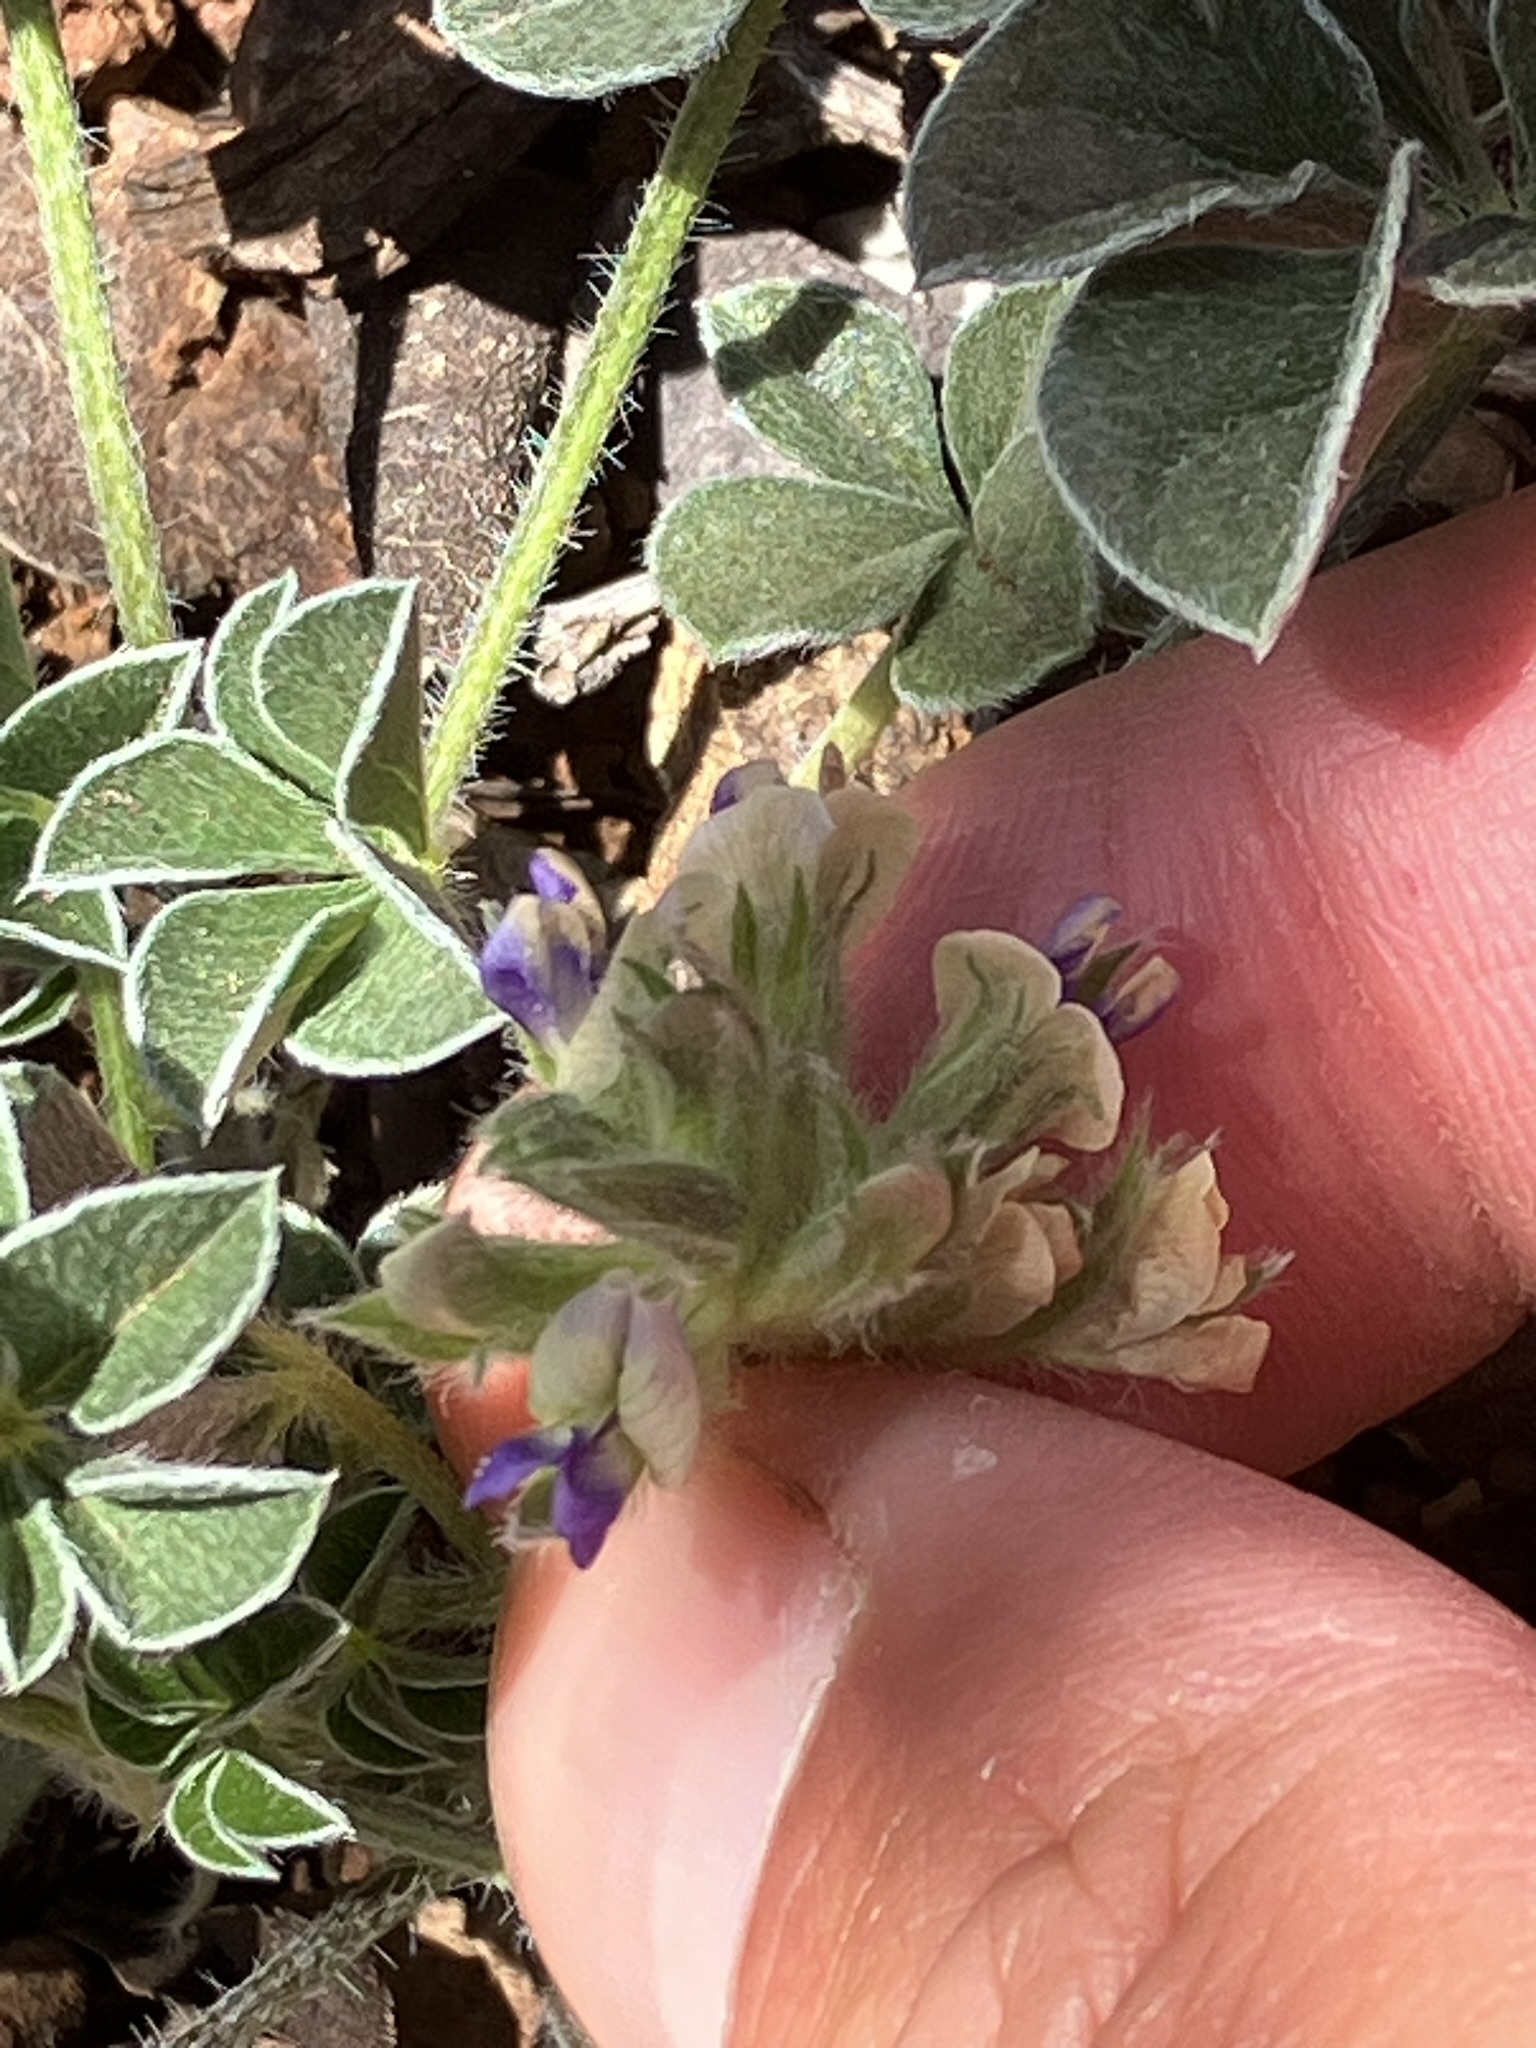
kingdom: Plantae
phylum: Tracheophyta
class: Magnoliopsida
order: Fabales
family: Fabaceae
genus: Pediomelum
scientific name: Pediomelum californicum
